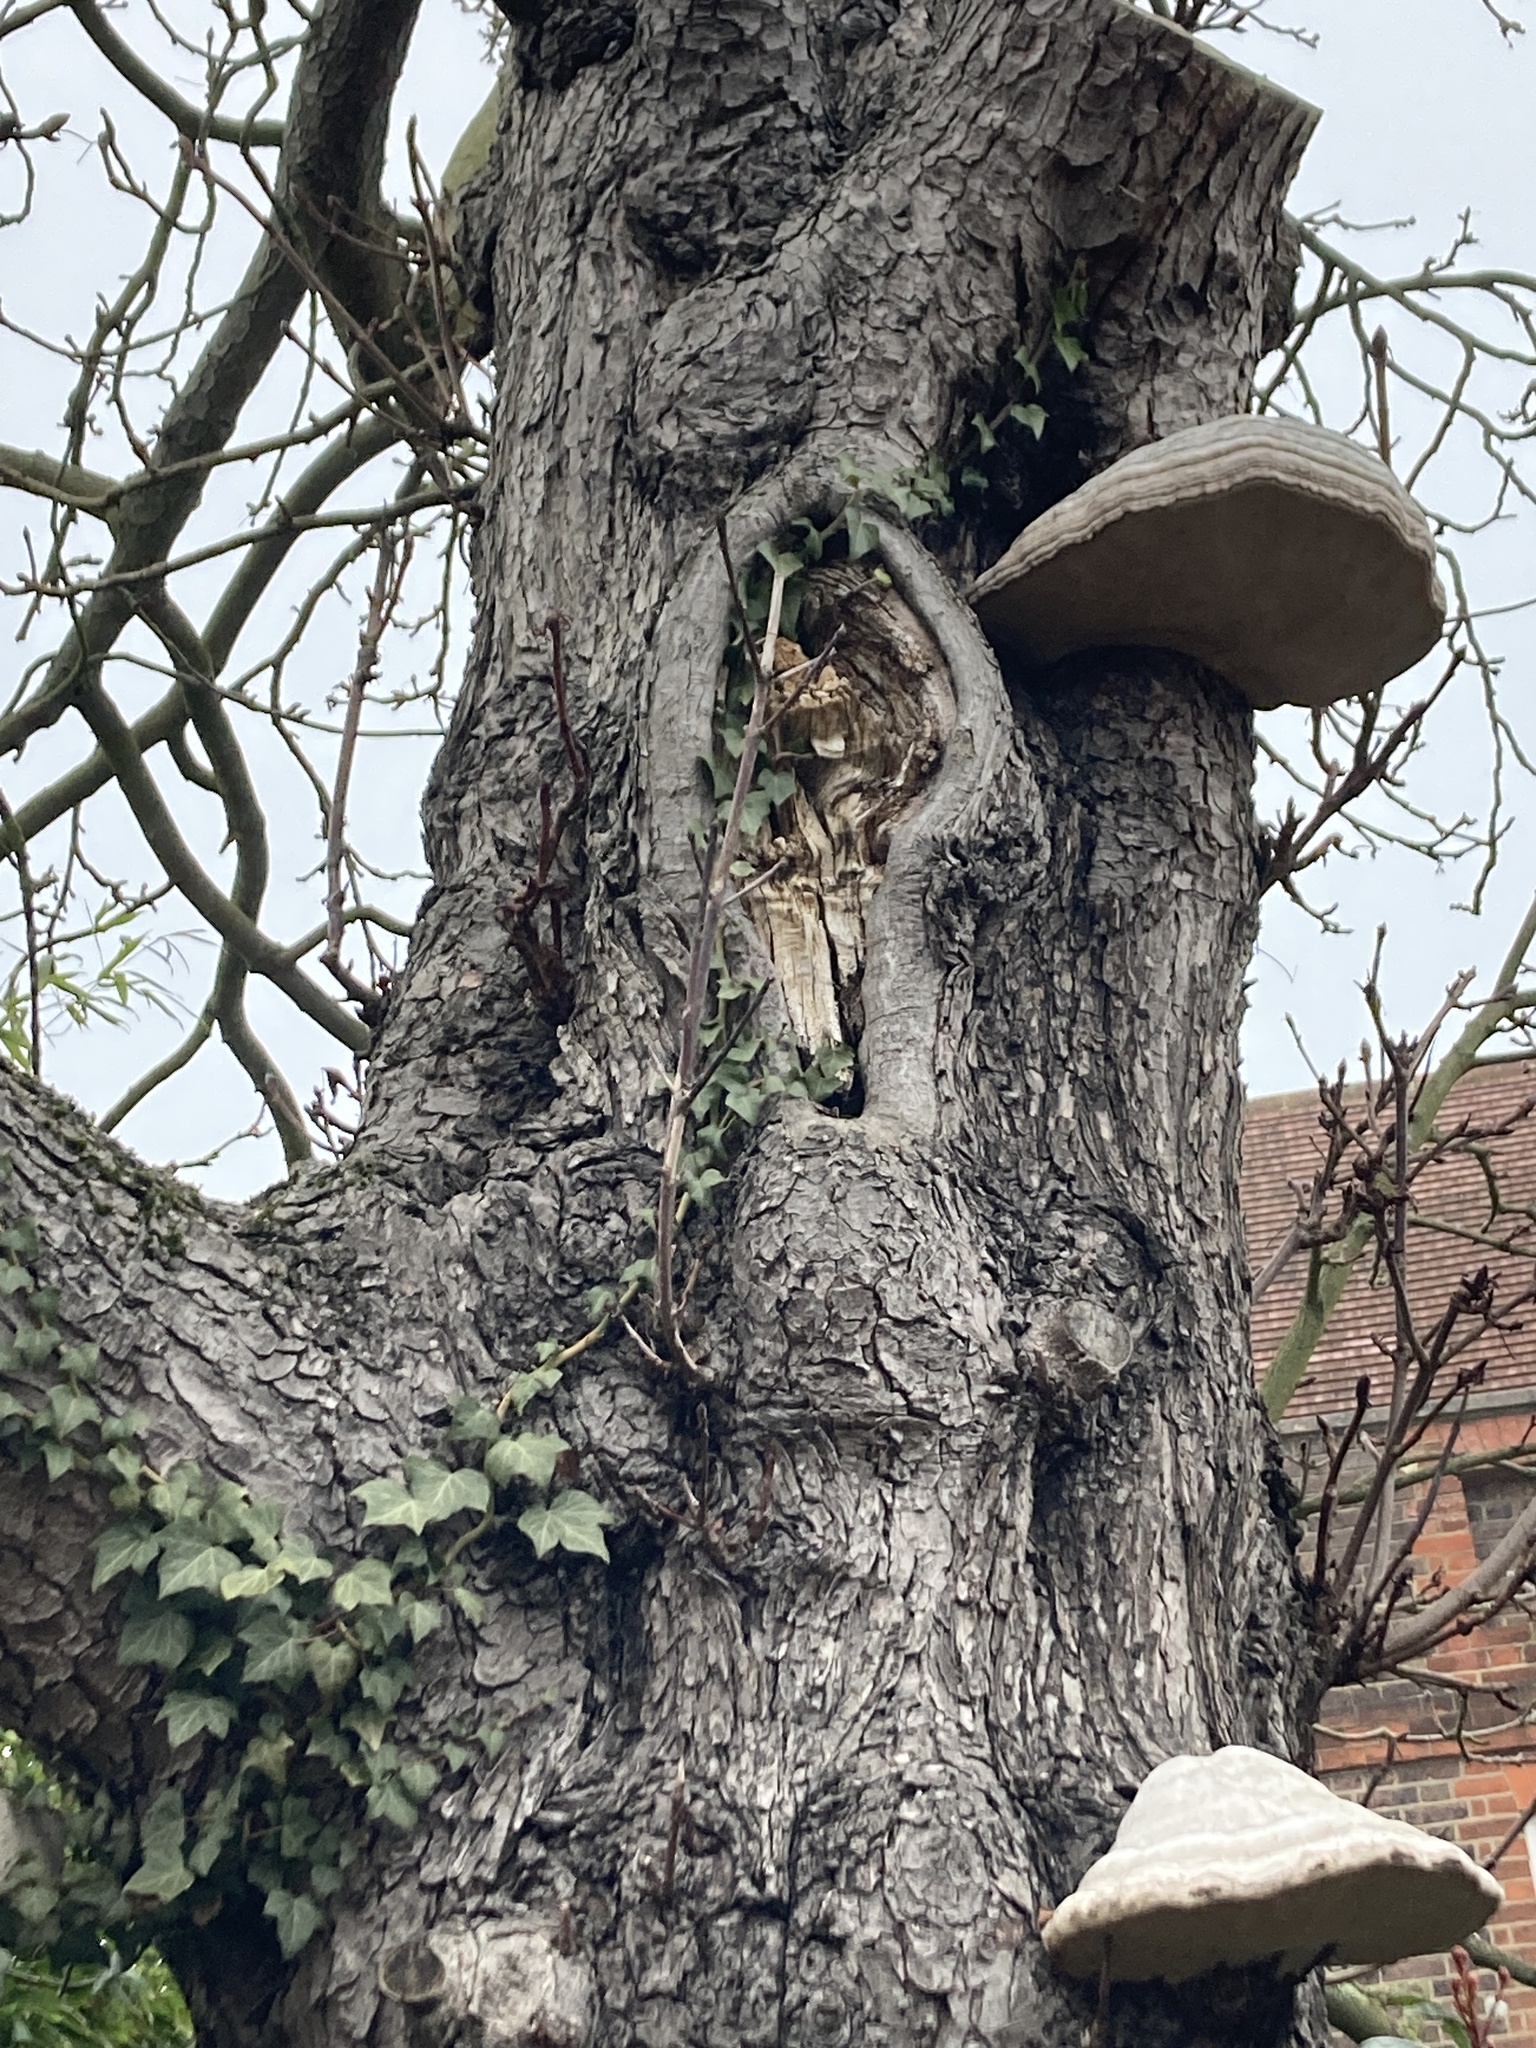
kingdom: Fungi
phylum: Basidiomycota
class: Agaricomycetes
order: Polyporales
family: Polyporaceae
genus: Fomes
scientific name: Fomes fomentarius
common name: Hoof fungus
